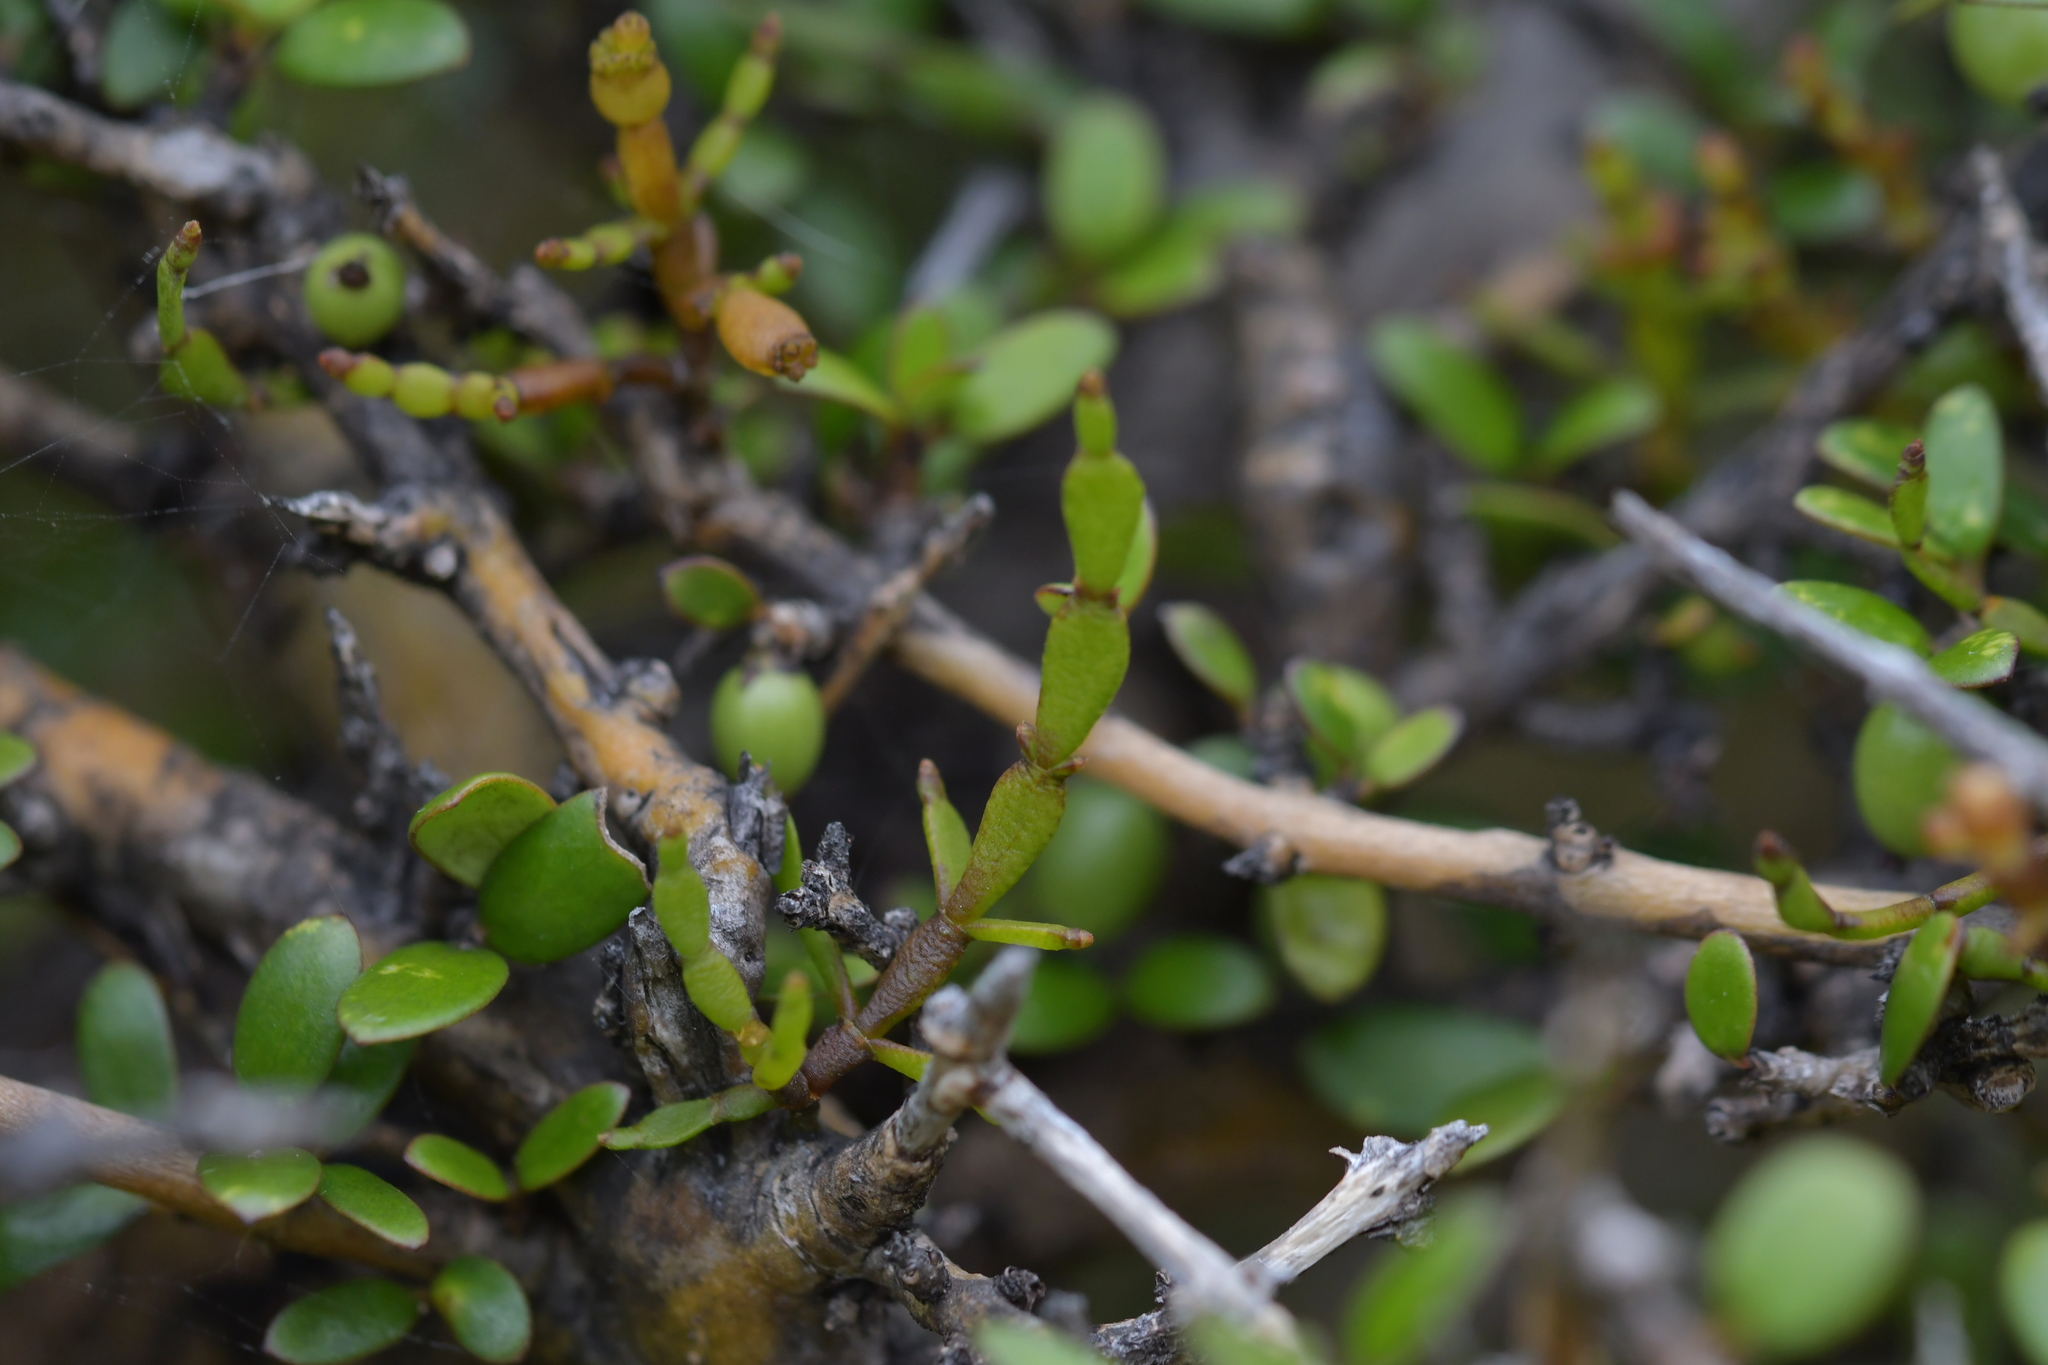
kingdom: Plantae
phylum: Tracheophyta
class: Magnoliopsida
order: Santalales
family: Viscaceae
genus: Korthalsella
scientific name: Korthalsella clavata
